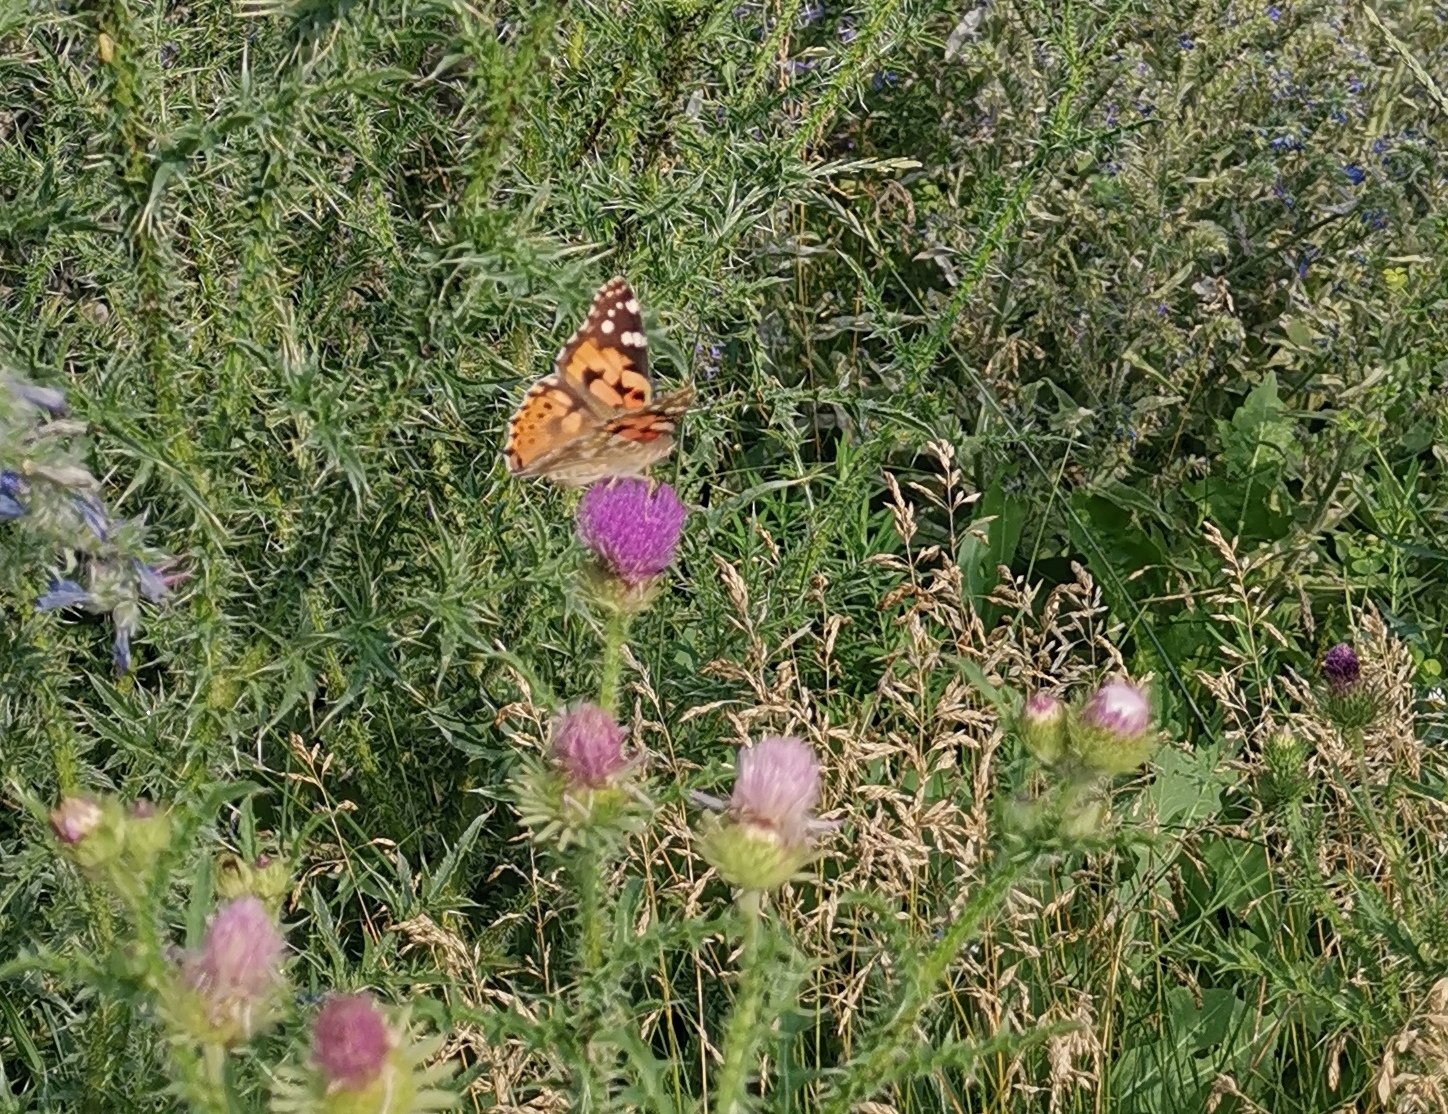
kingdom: Animalia
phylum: Arthropoda
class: Insecta
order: Lepidoptera
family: Nymphalidae
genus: Vanessa
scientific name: Vanessa cardui
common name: Painted lady
